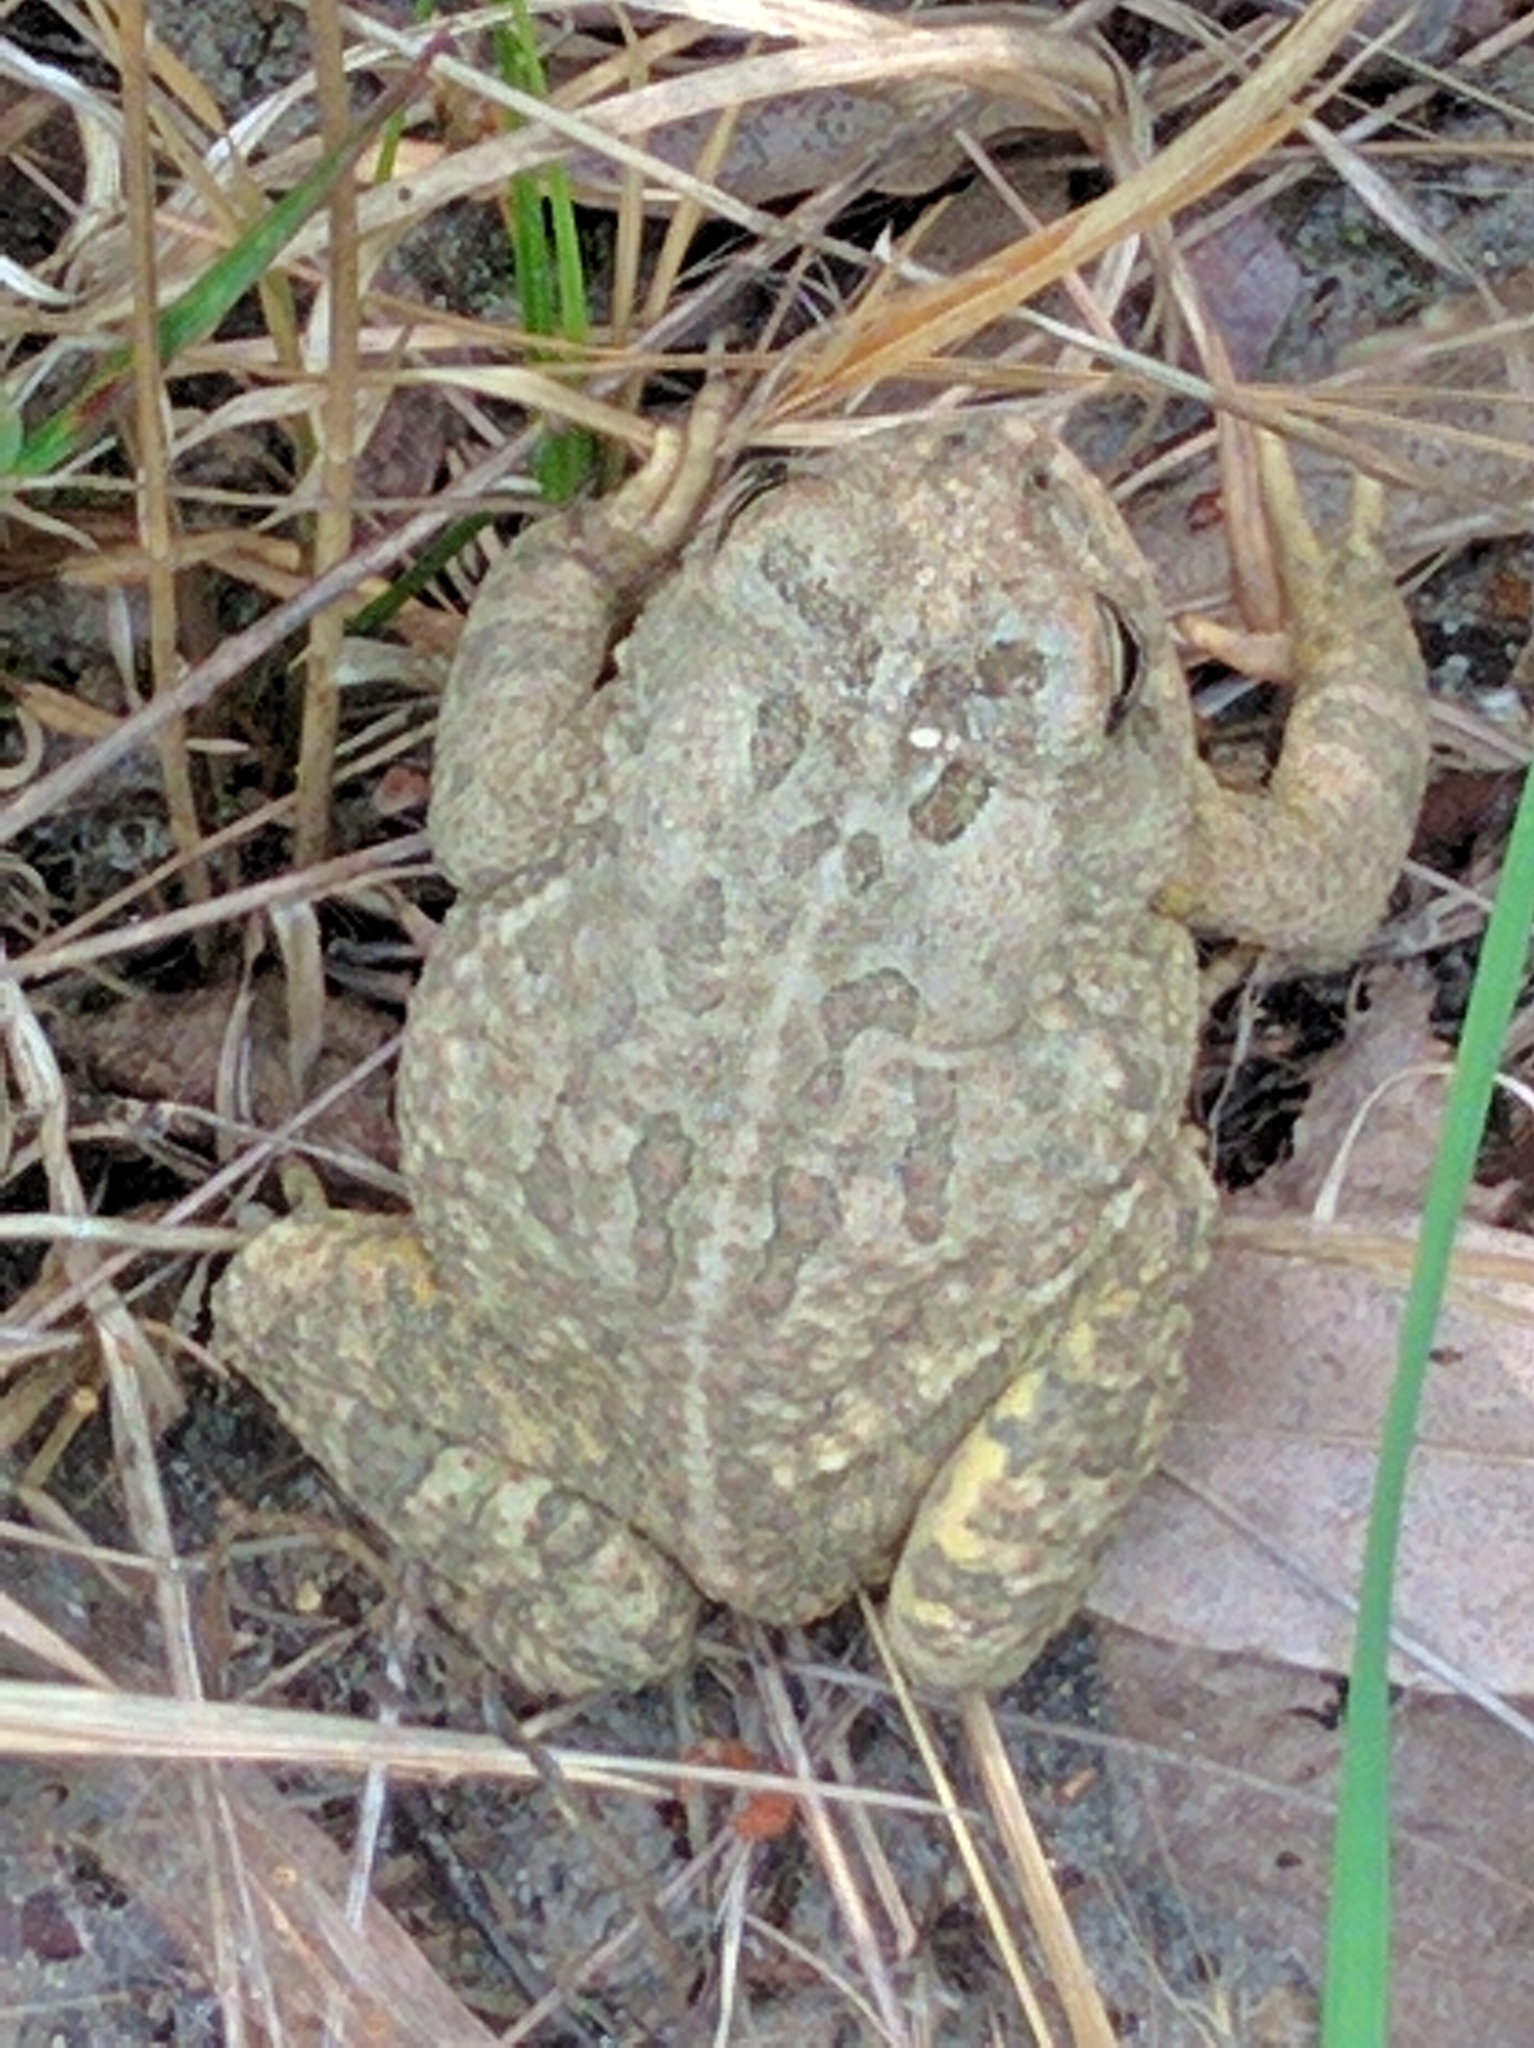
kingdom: Animalia
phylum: Chordata
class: Amphibia
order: Anura
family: Bufonidae
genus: Anaxyrus
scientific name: Anaxyrus fowleri
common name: Fowler's toad
